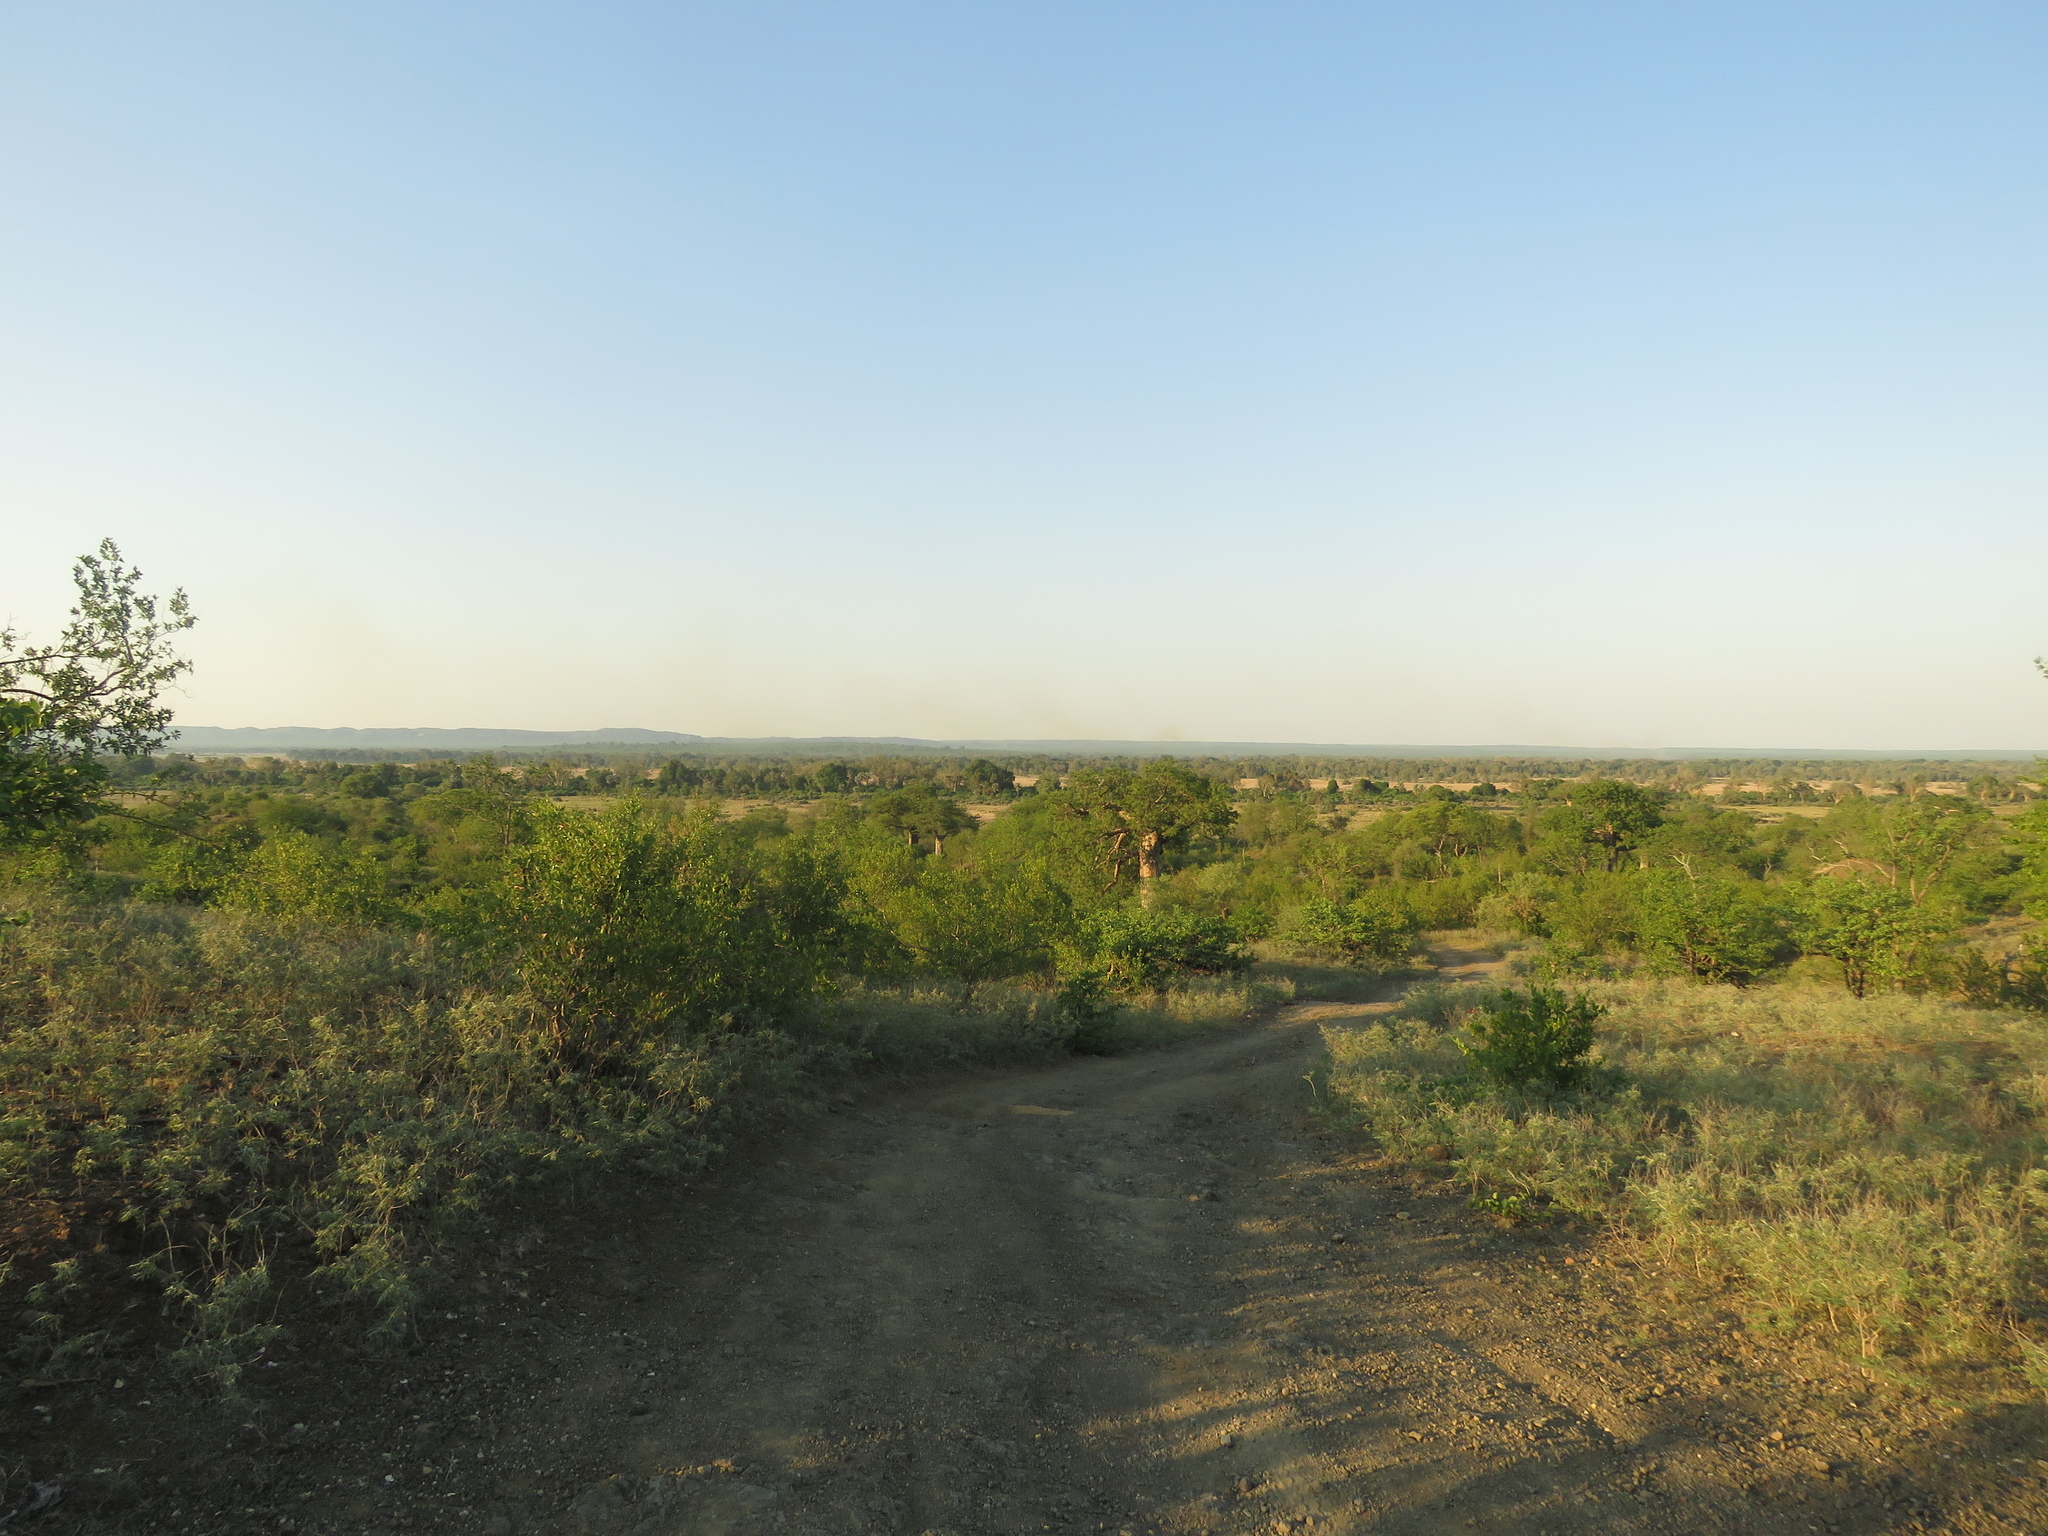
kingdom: Plantae
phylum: Tracheophyta
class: Magnoliopsida
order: Malvales
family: Malvaceae
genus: Adansonia
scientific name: Adansonia digitata
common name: Dead-rat-tree
